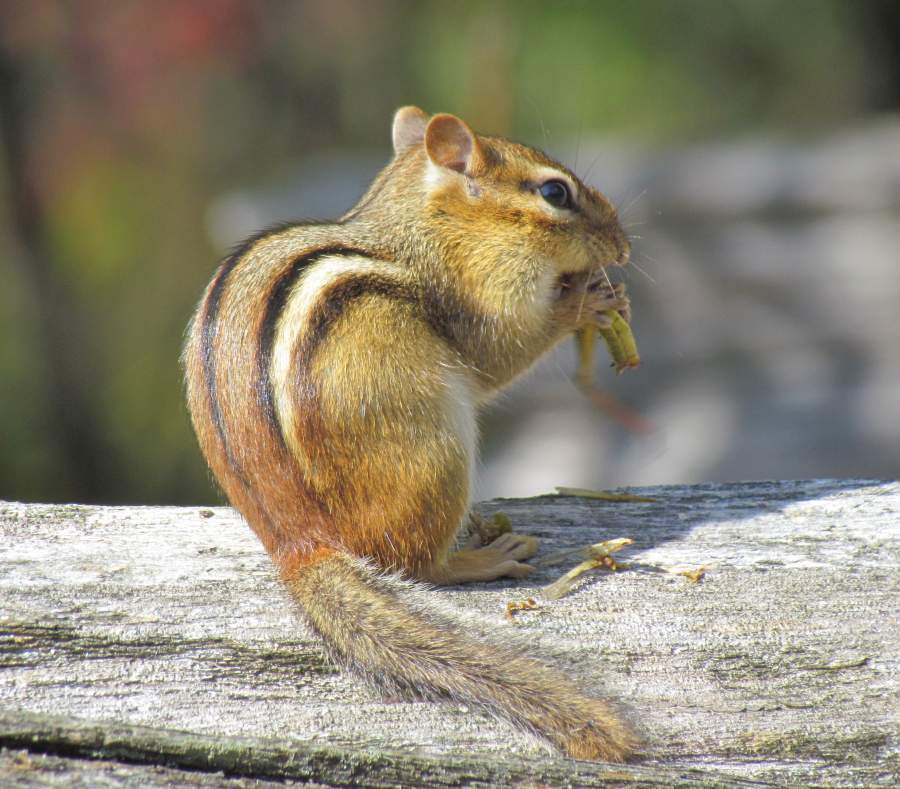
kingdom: Animalia
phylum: Chordata
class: Mammalia
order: Rodentia
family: Sciuridae
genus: Tamias
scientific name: Tamias striatus
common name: Eastern chipmunk
